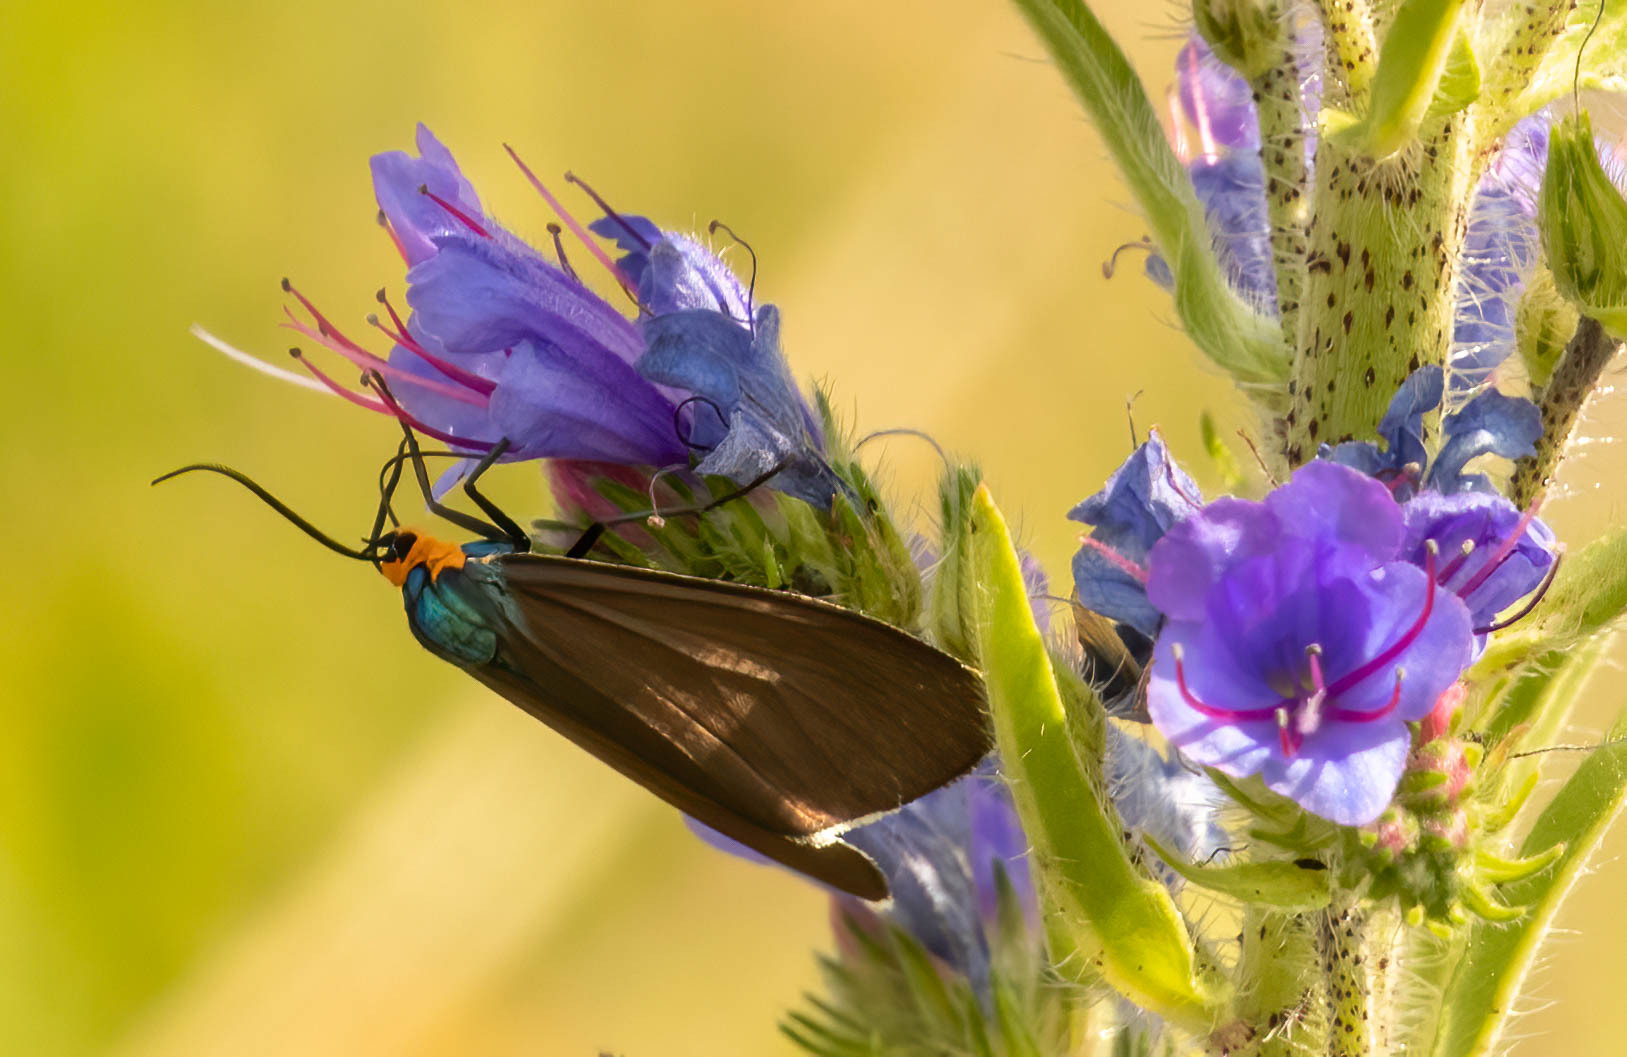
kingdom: Animalia
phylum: Arthropoda
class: Insecta
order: Lepidoptera
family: Erebidae
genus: Ctenucha
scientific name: Ctenucha virginica
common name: Virginia ctenucha moth
